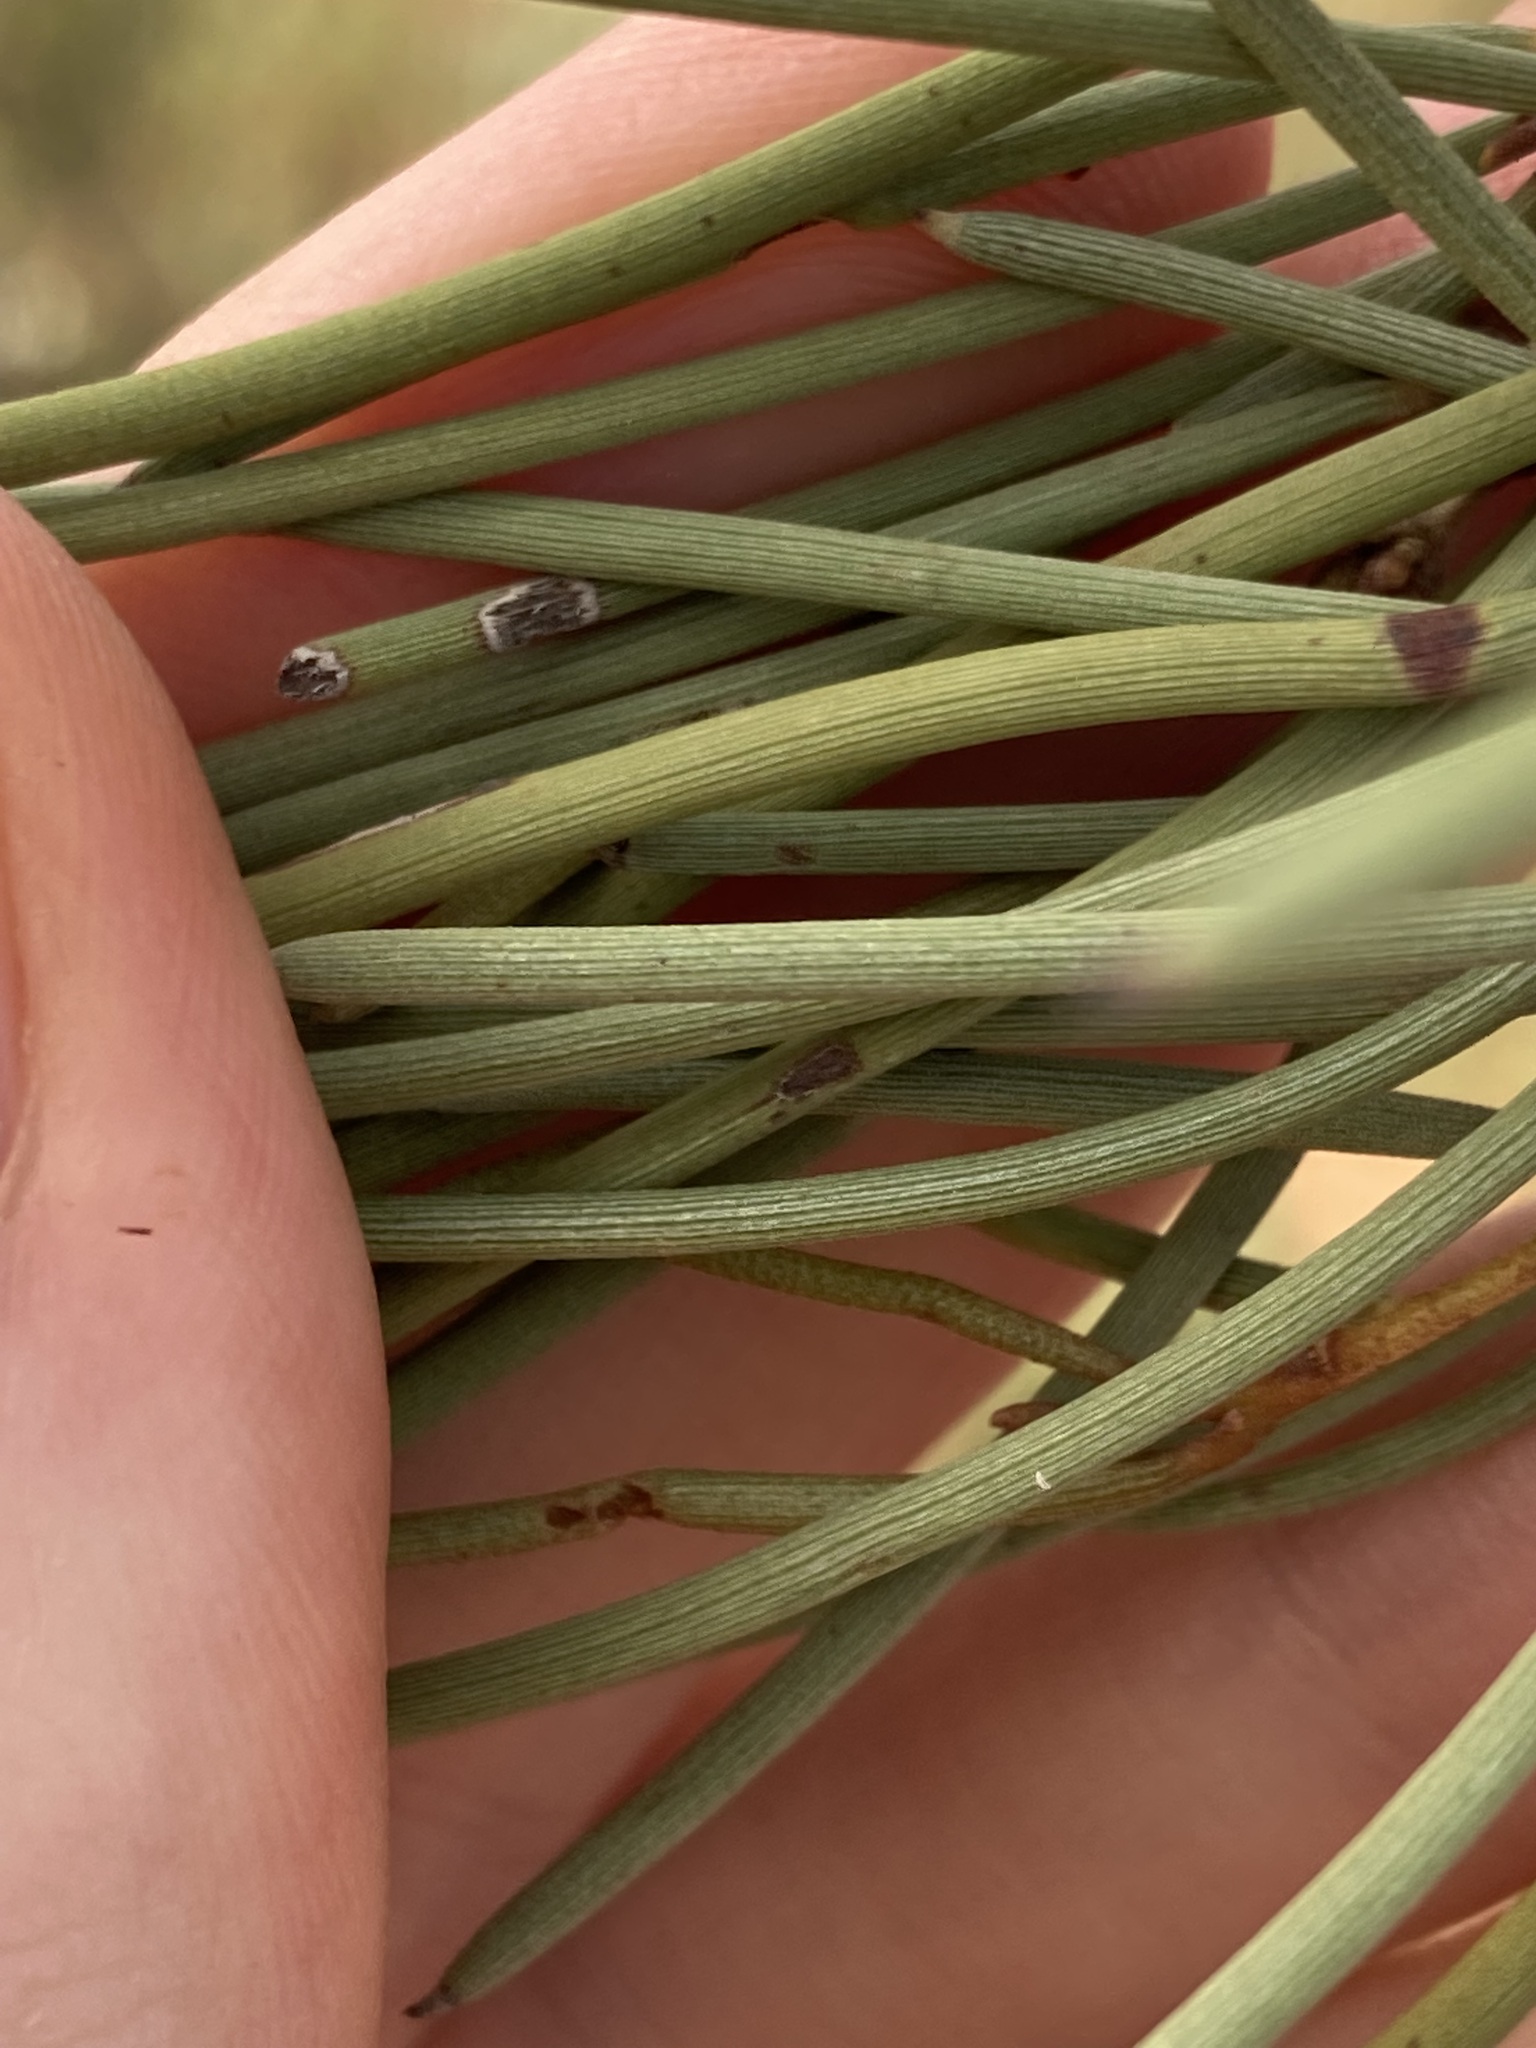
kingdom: Plantae
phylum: Tracheophyta
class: Magnoliopsida
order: Fabales
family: Fabaceae
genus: Acacia
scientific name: Acacia grasbyi
